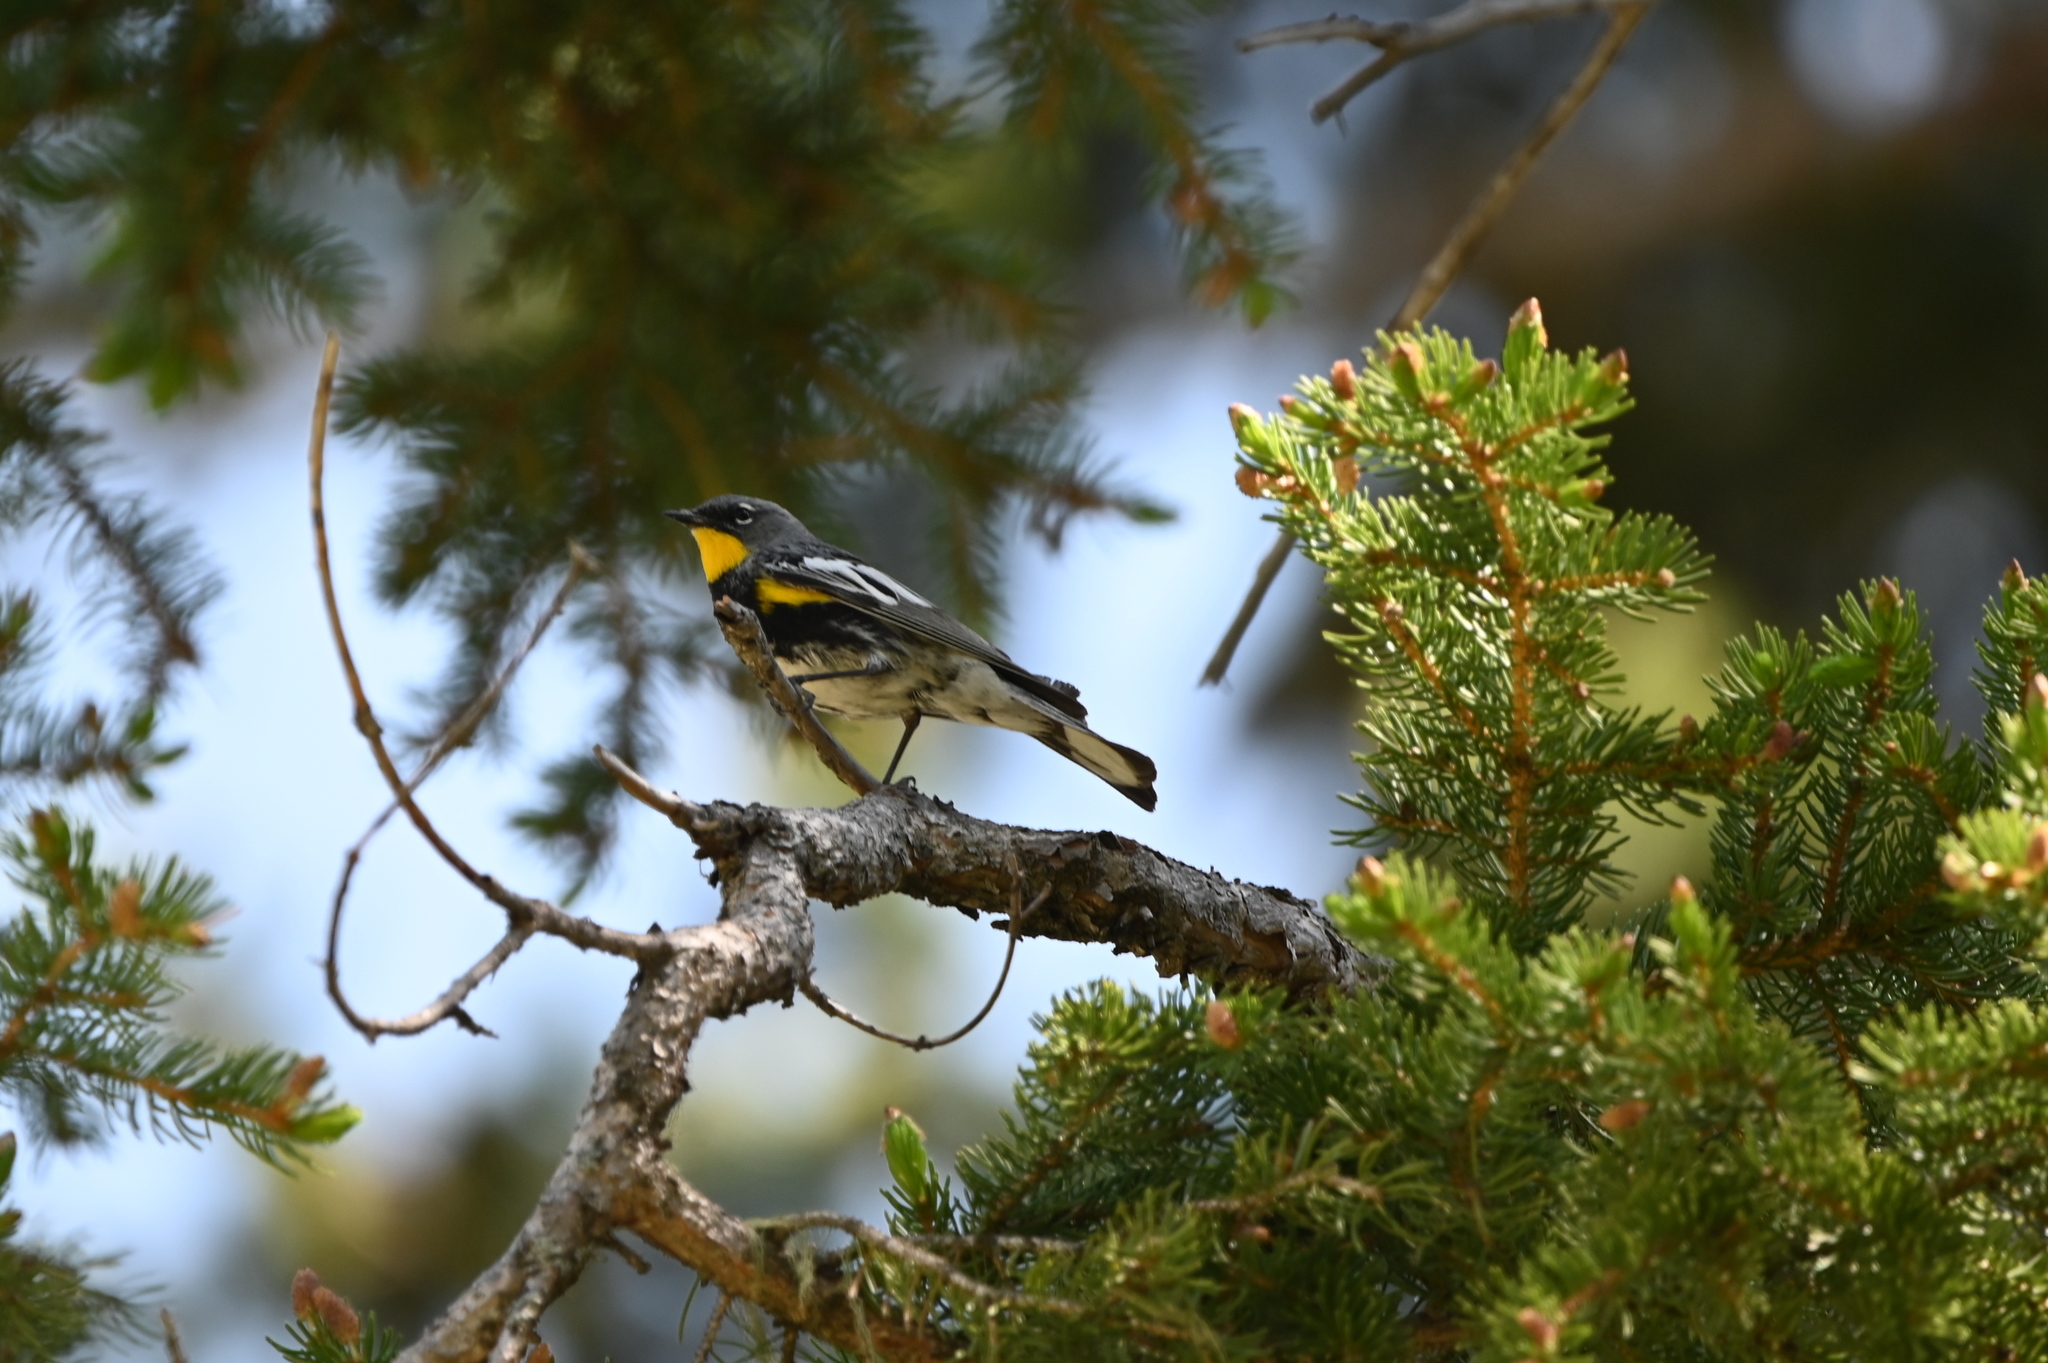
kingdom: Animalia
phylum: Chordata
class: Aves
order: Passeriformes
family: Parulidae
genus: Setophaga
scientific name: Setophaga auduboni
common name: Audubon's warbler
